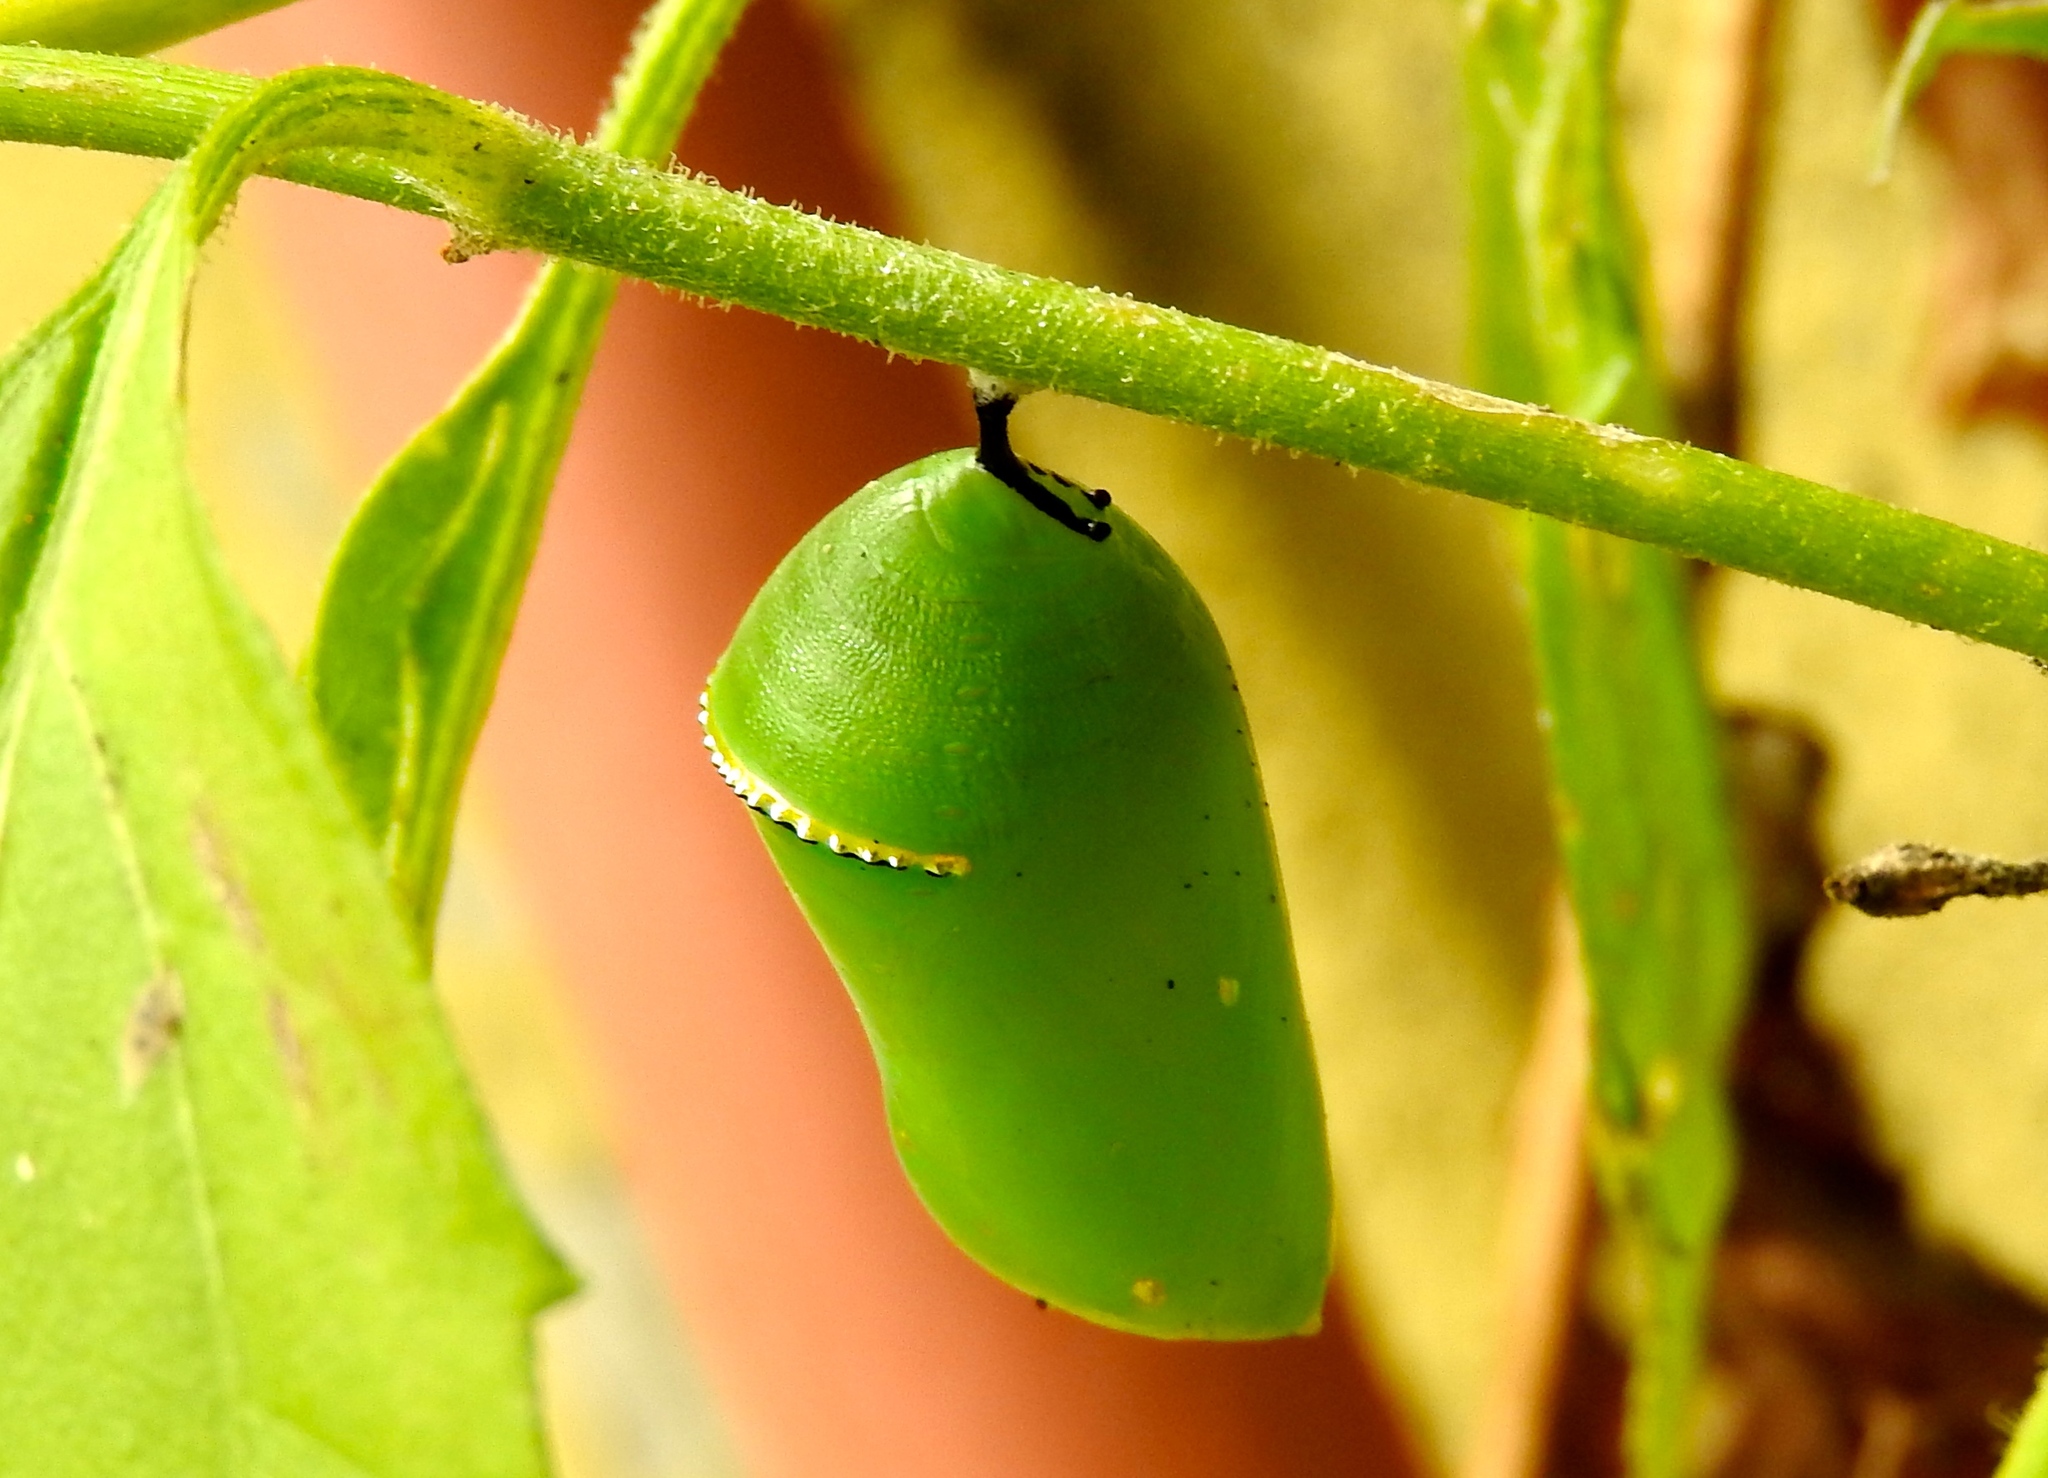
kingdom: Animalia
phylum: Arthropoda
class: Insecta
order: Lepidoptera
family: Nymphalidae
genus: Danaus
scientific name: Danaus
